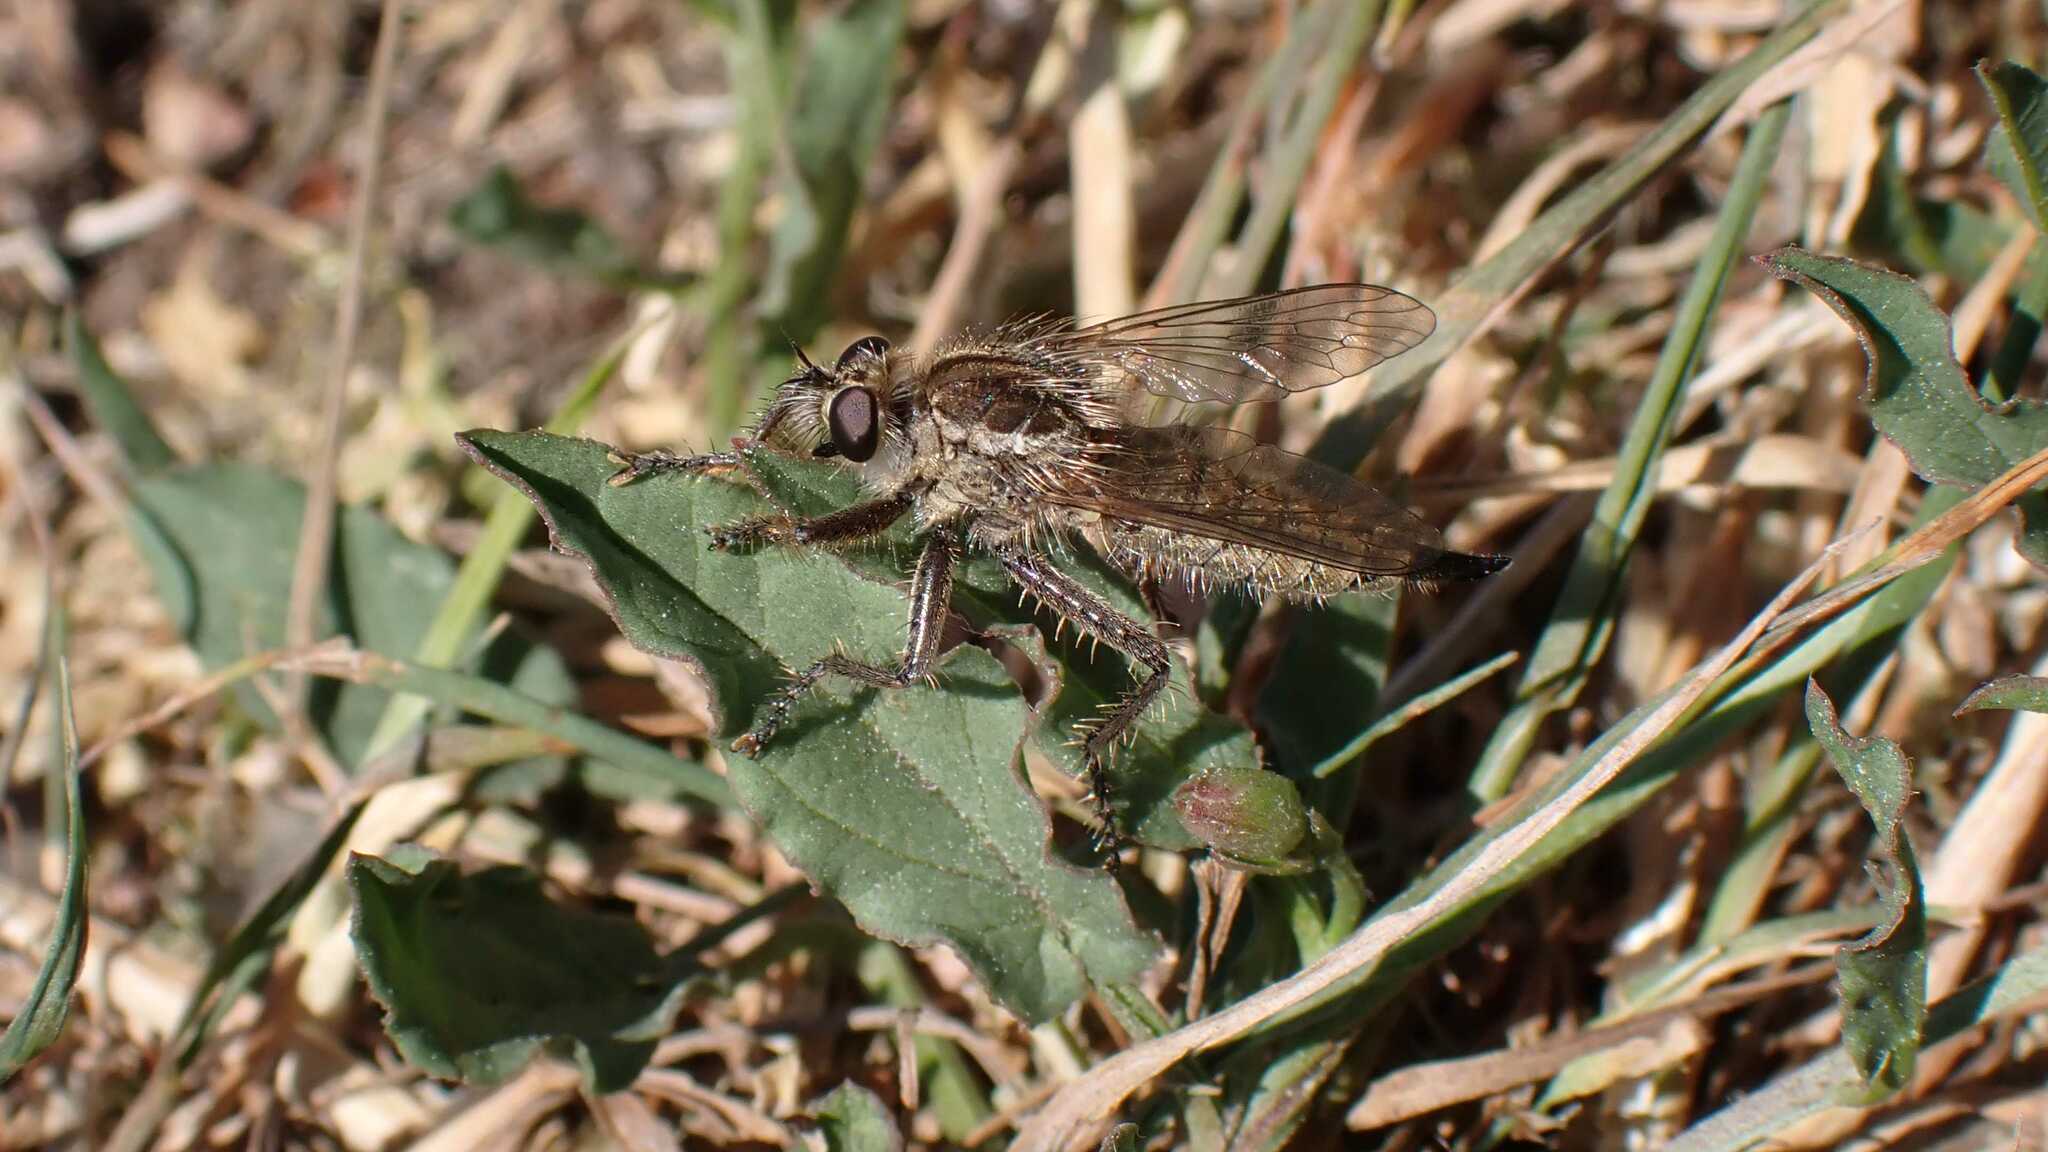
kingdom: Animalia
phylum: Arthropoda
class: Insecta
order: Diptera
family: Asilidae
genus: Dysmachus
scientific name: Dysmachus trigonus
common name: Fan-bristled robberfly
